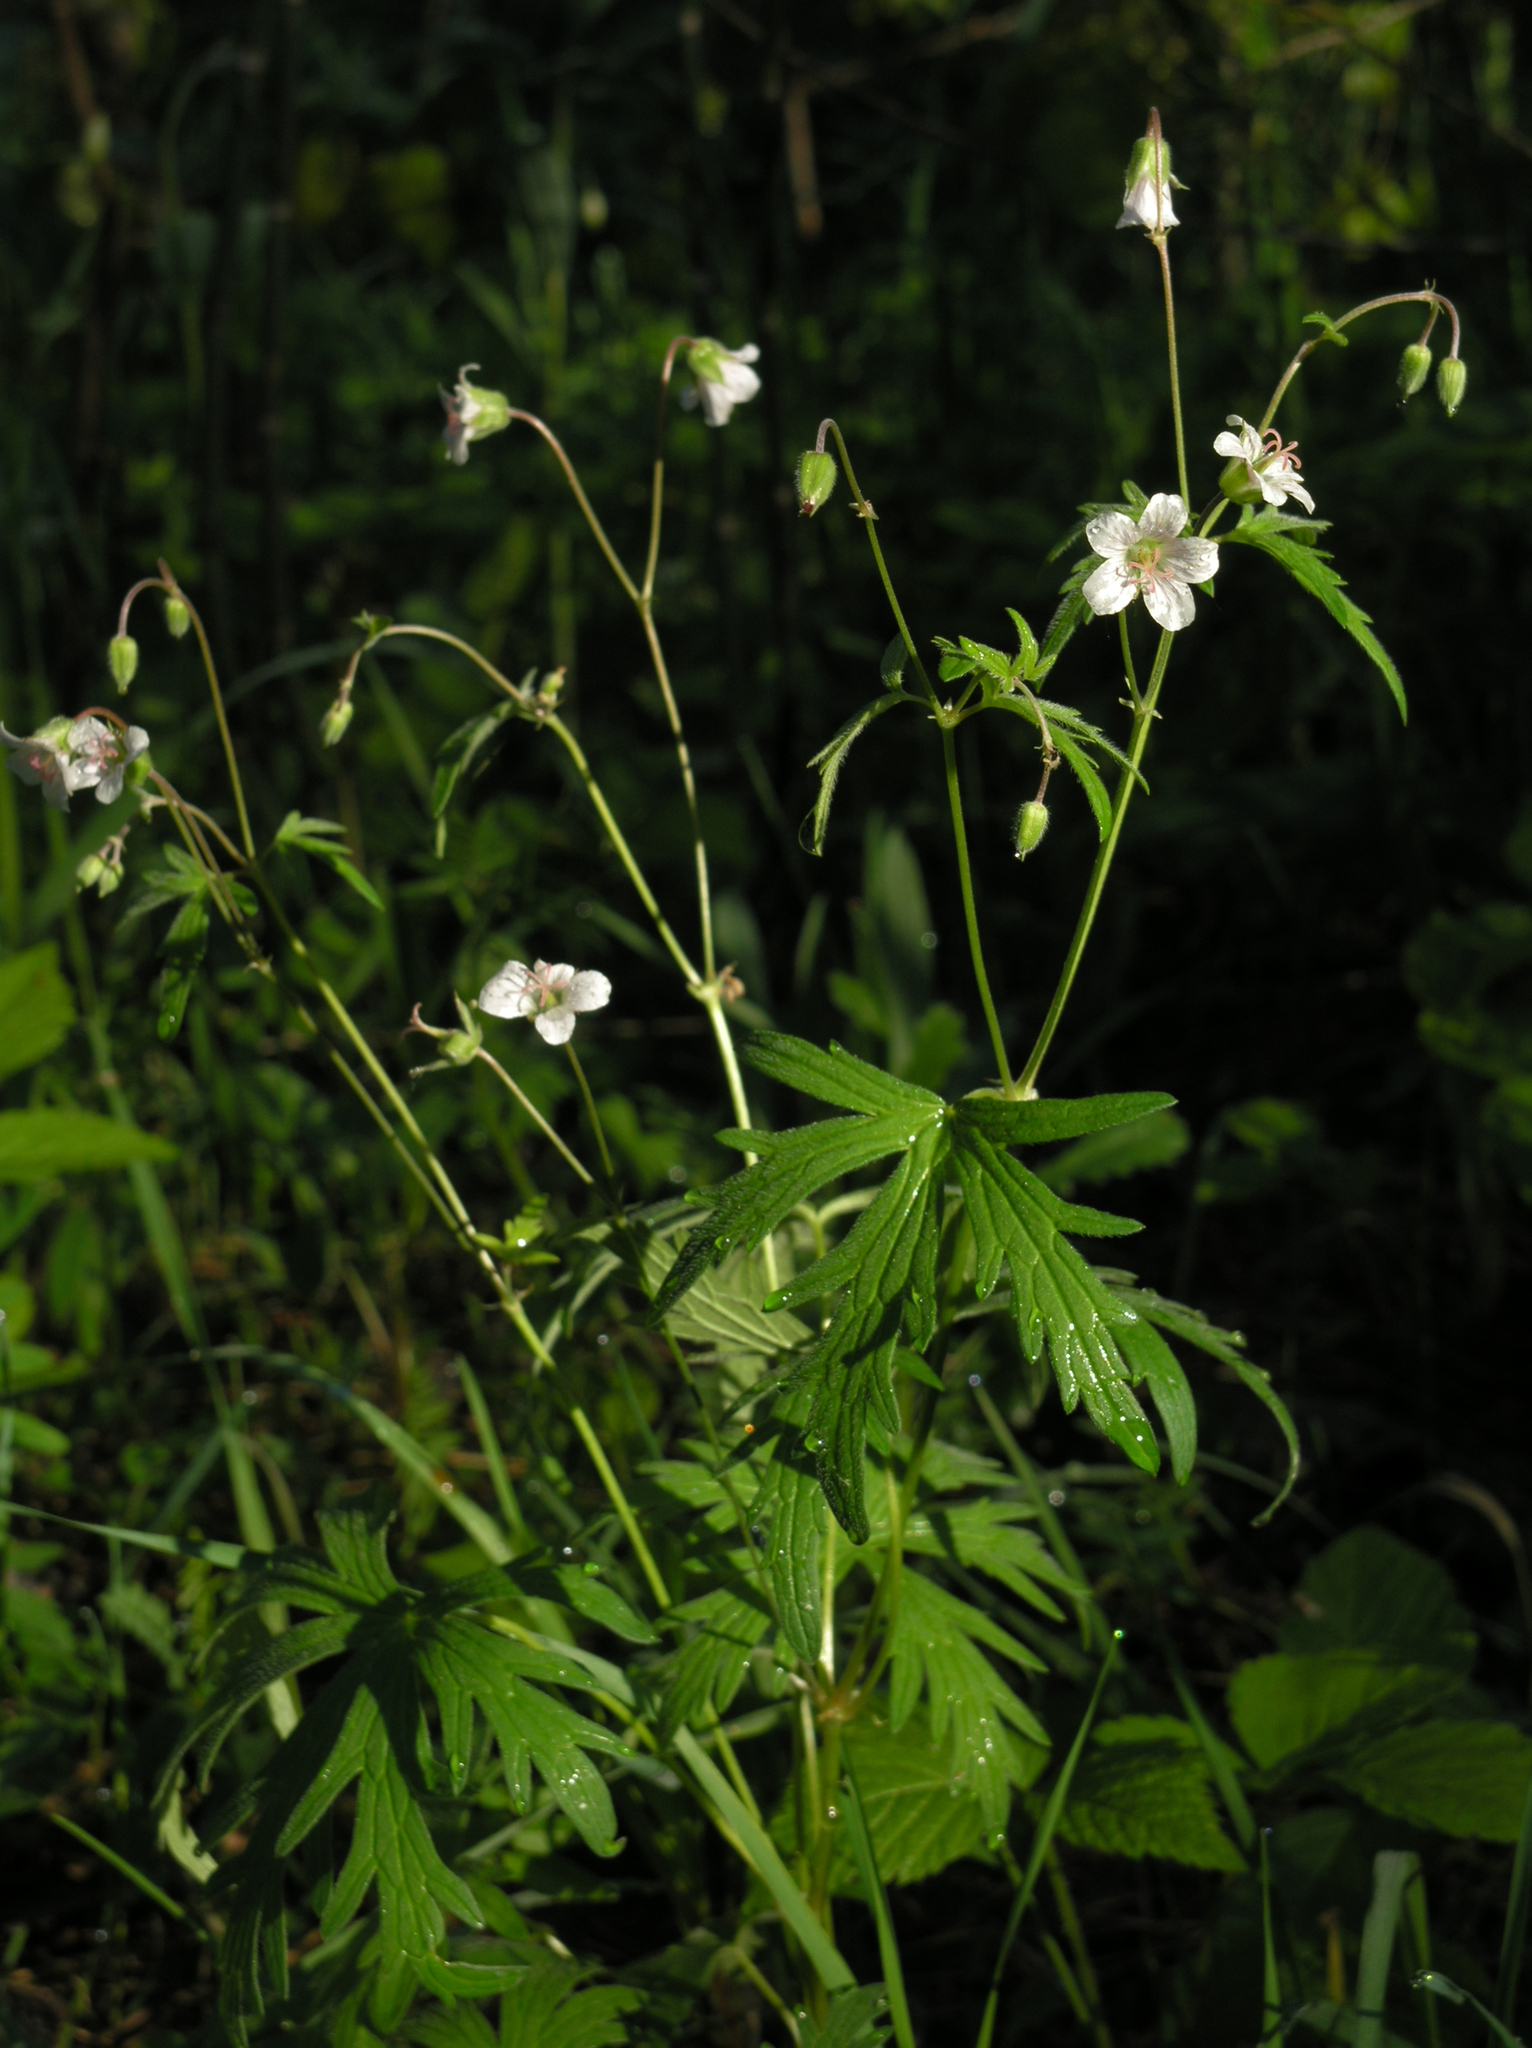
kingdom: Plantae
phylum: Tracheophyta
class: Magnoliopsida
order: Geraniales
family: Geraniaceae
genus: Geranium
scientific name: Geranium pseudosibiricum
